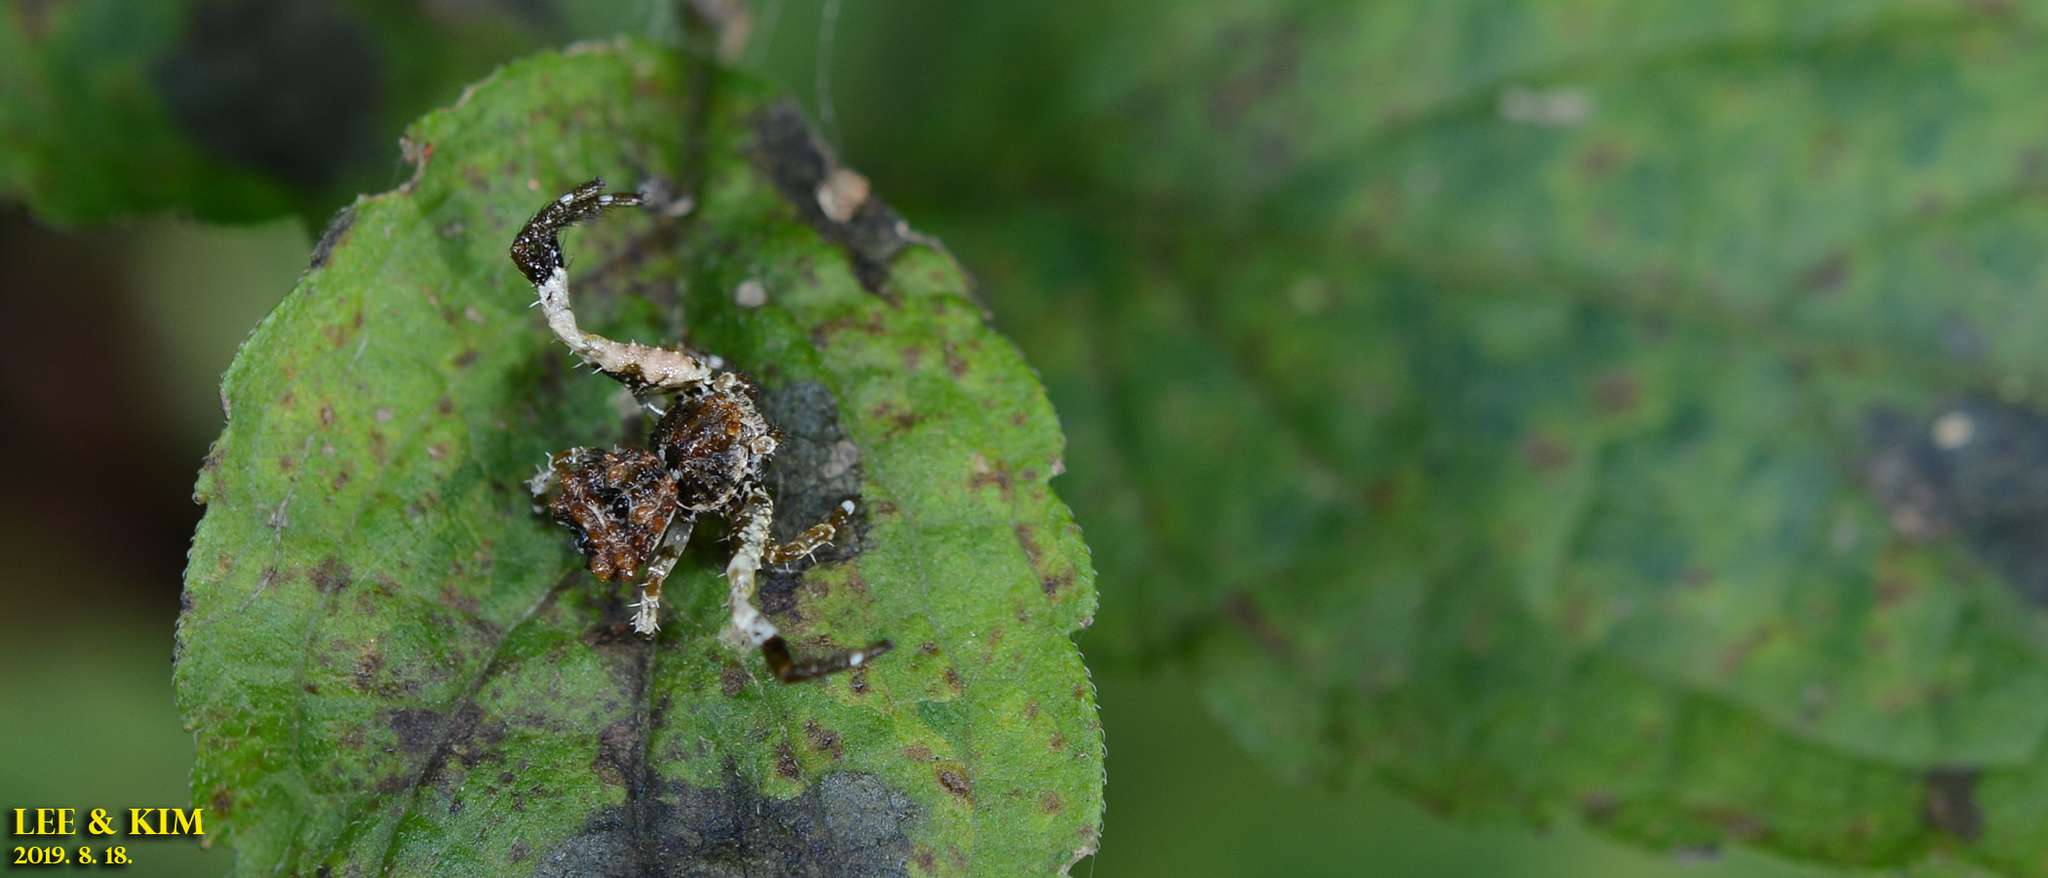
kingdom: Animalia
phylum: Arthropoda
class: Arachnida
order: Araneae
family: Thomisidae
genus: Phrynarachne
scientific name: Phrynarachne katoi
